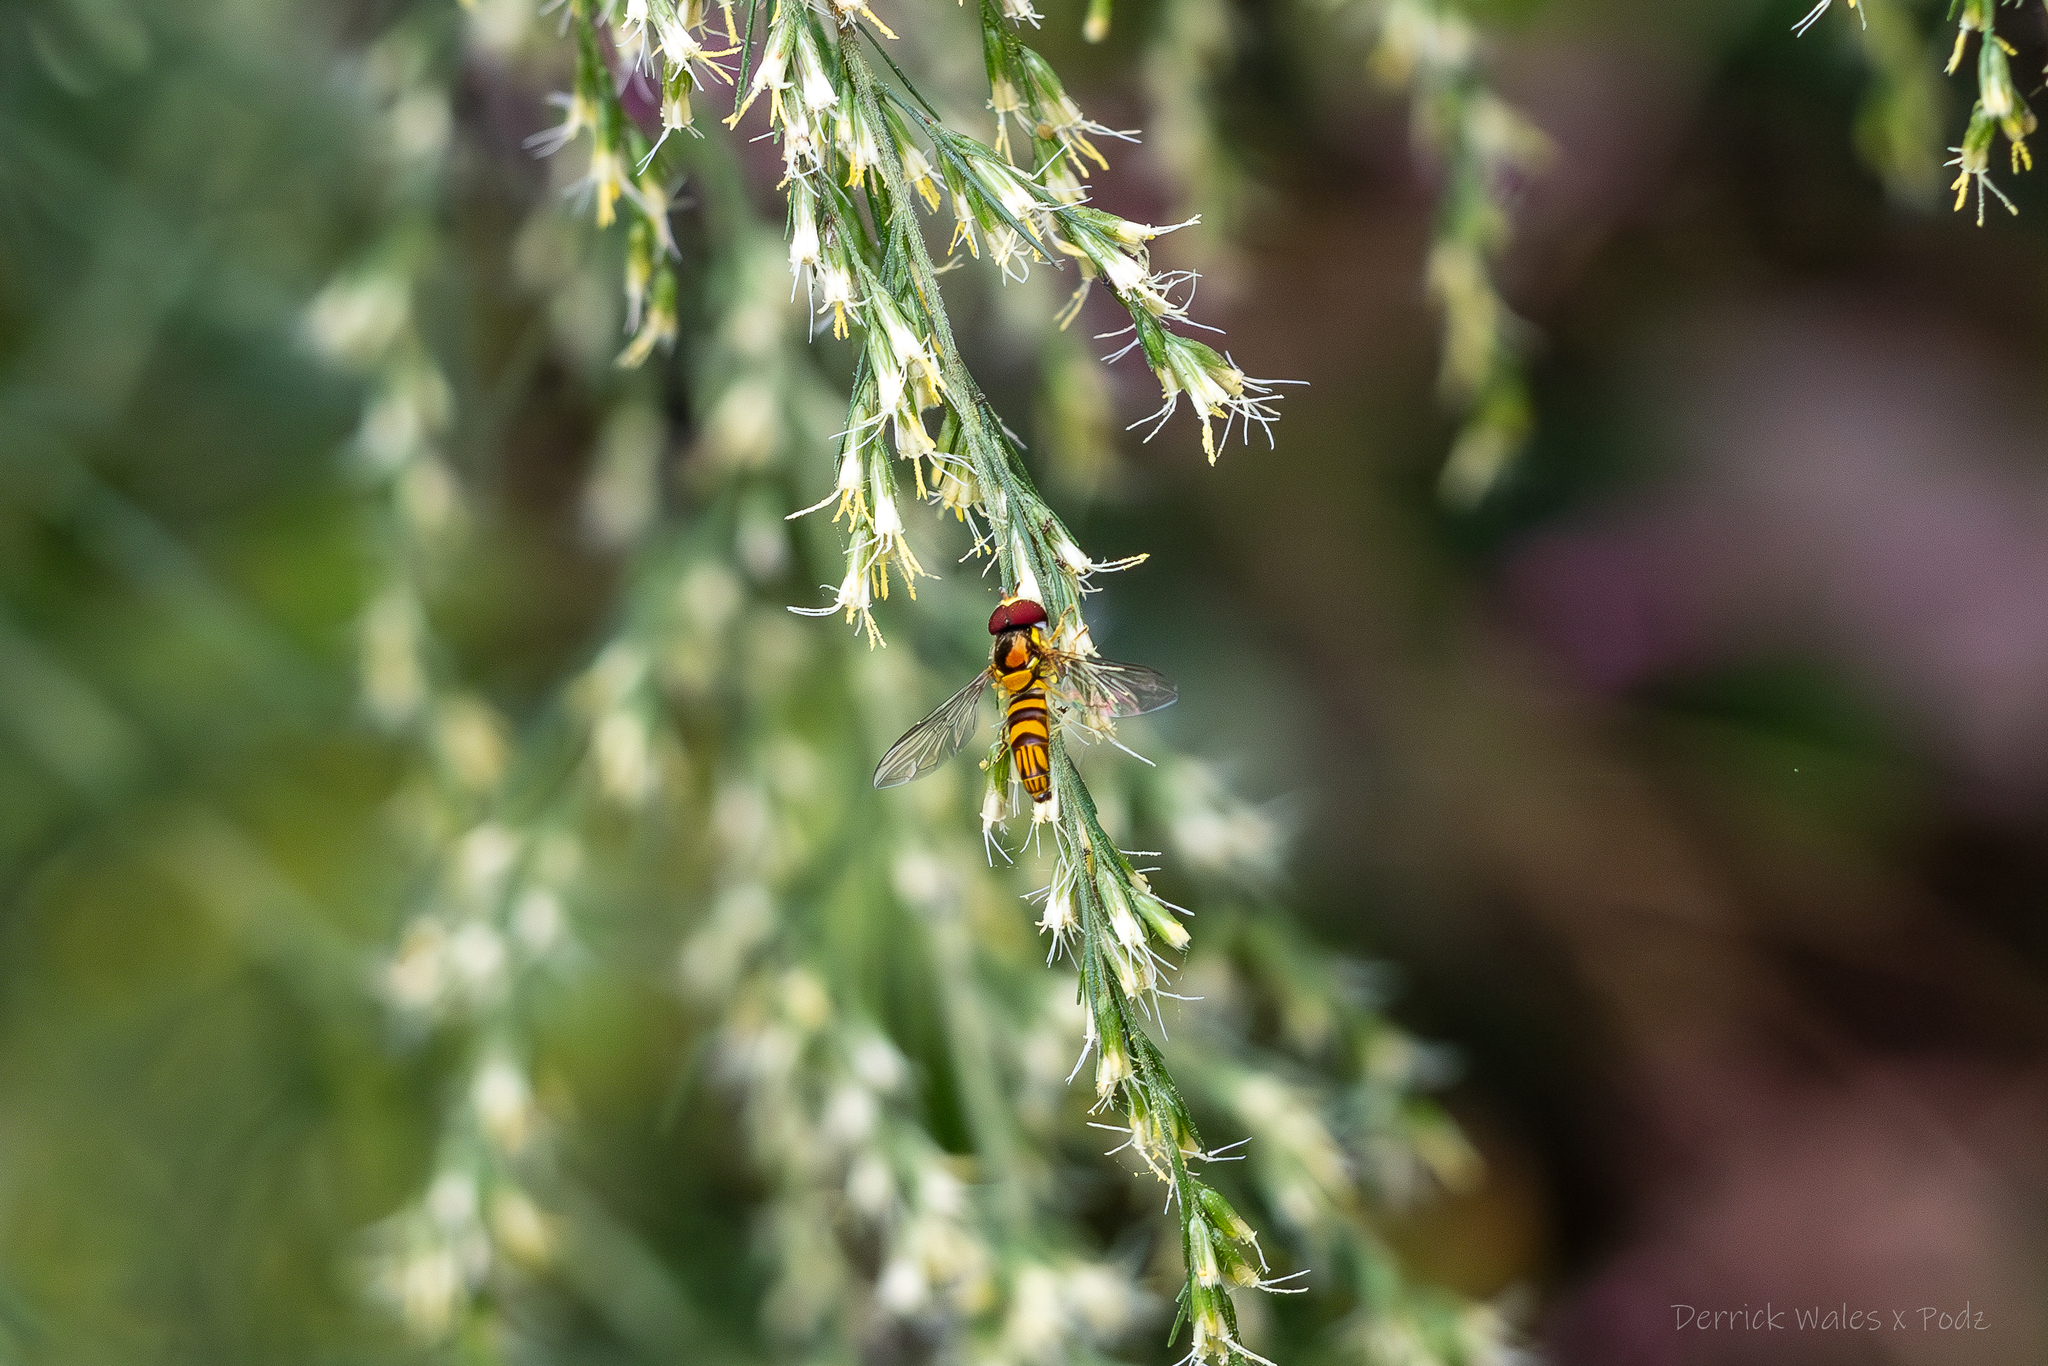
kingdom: Animalia
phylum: Arthropoda
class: Insecta
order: Diptera
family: Syrphidae
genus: Allograpta
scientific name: Allograpta obliqua
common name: Common oblique syrphid
